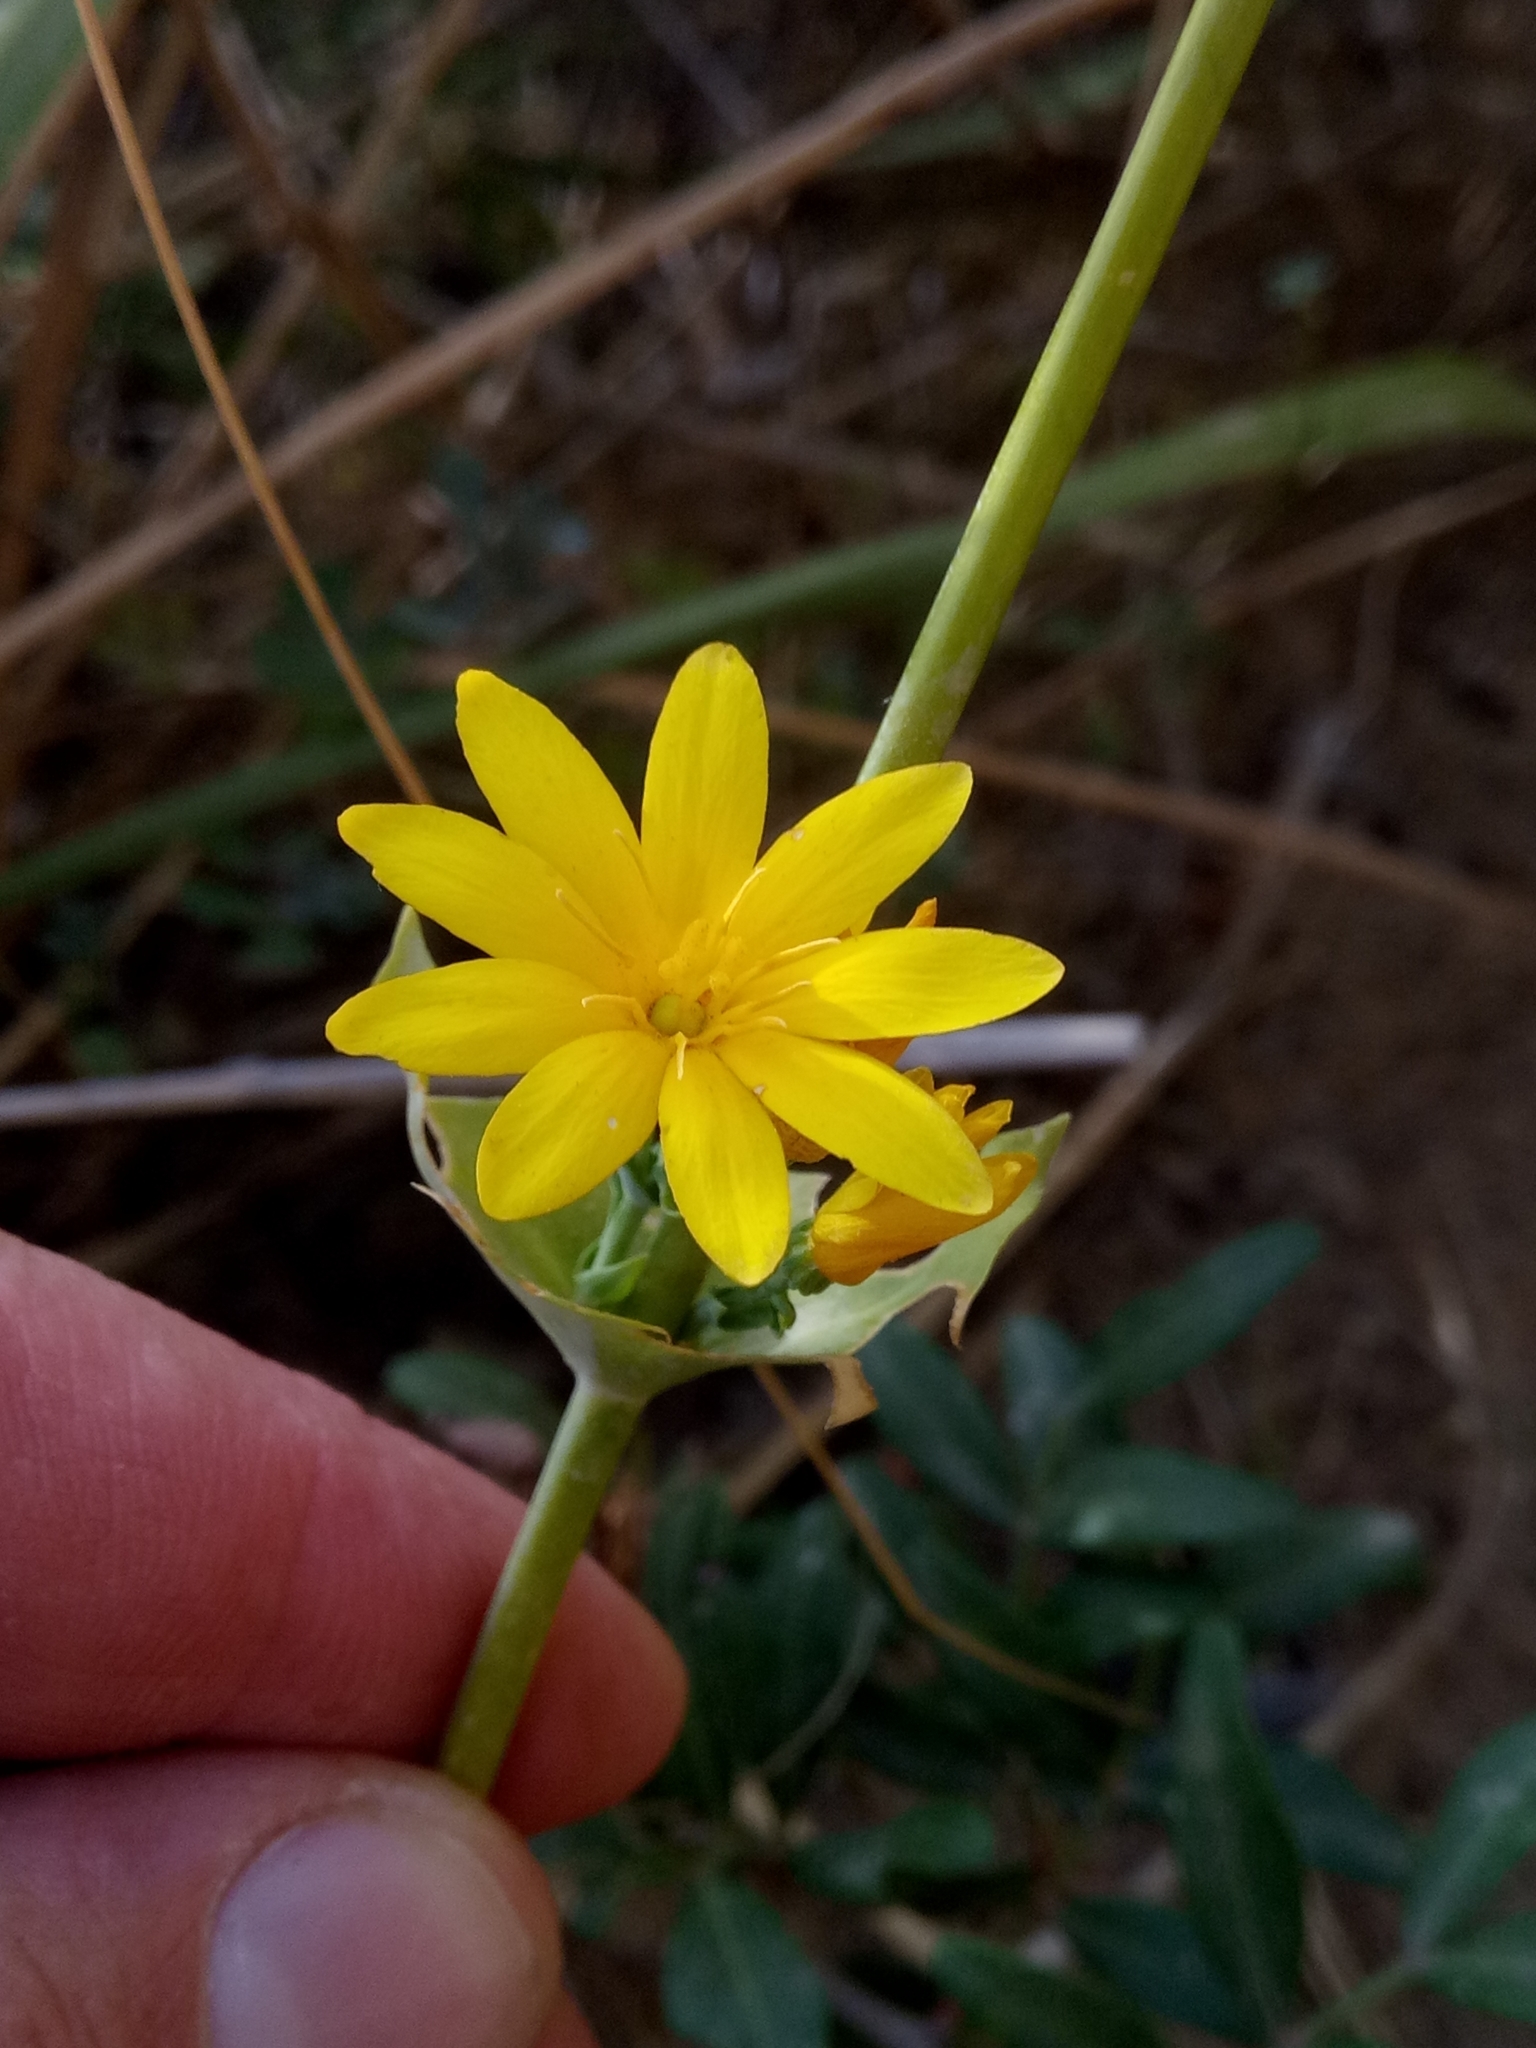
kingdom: Plantae
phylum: Tracheophyta
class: Magnoliopsida
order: Gentianales
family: Gentianaceae
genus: Blackstonia
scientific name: Blackstonia grandiflora
